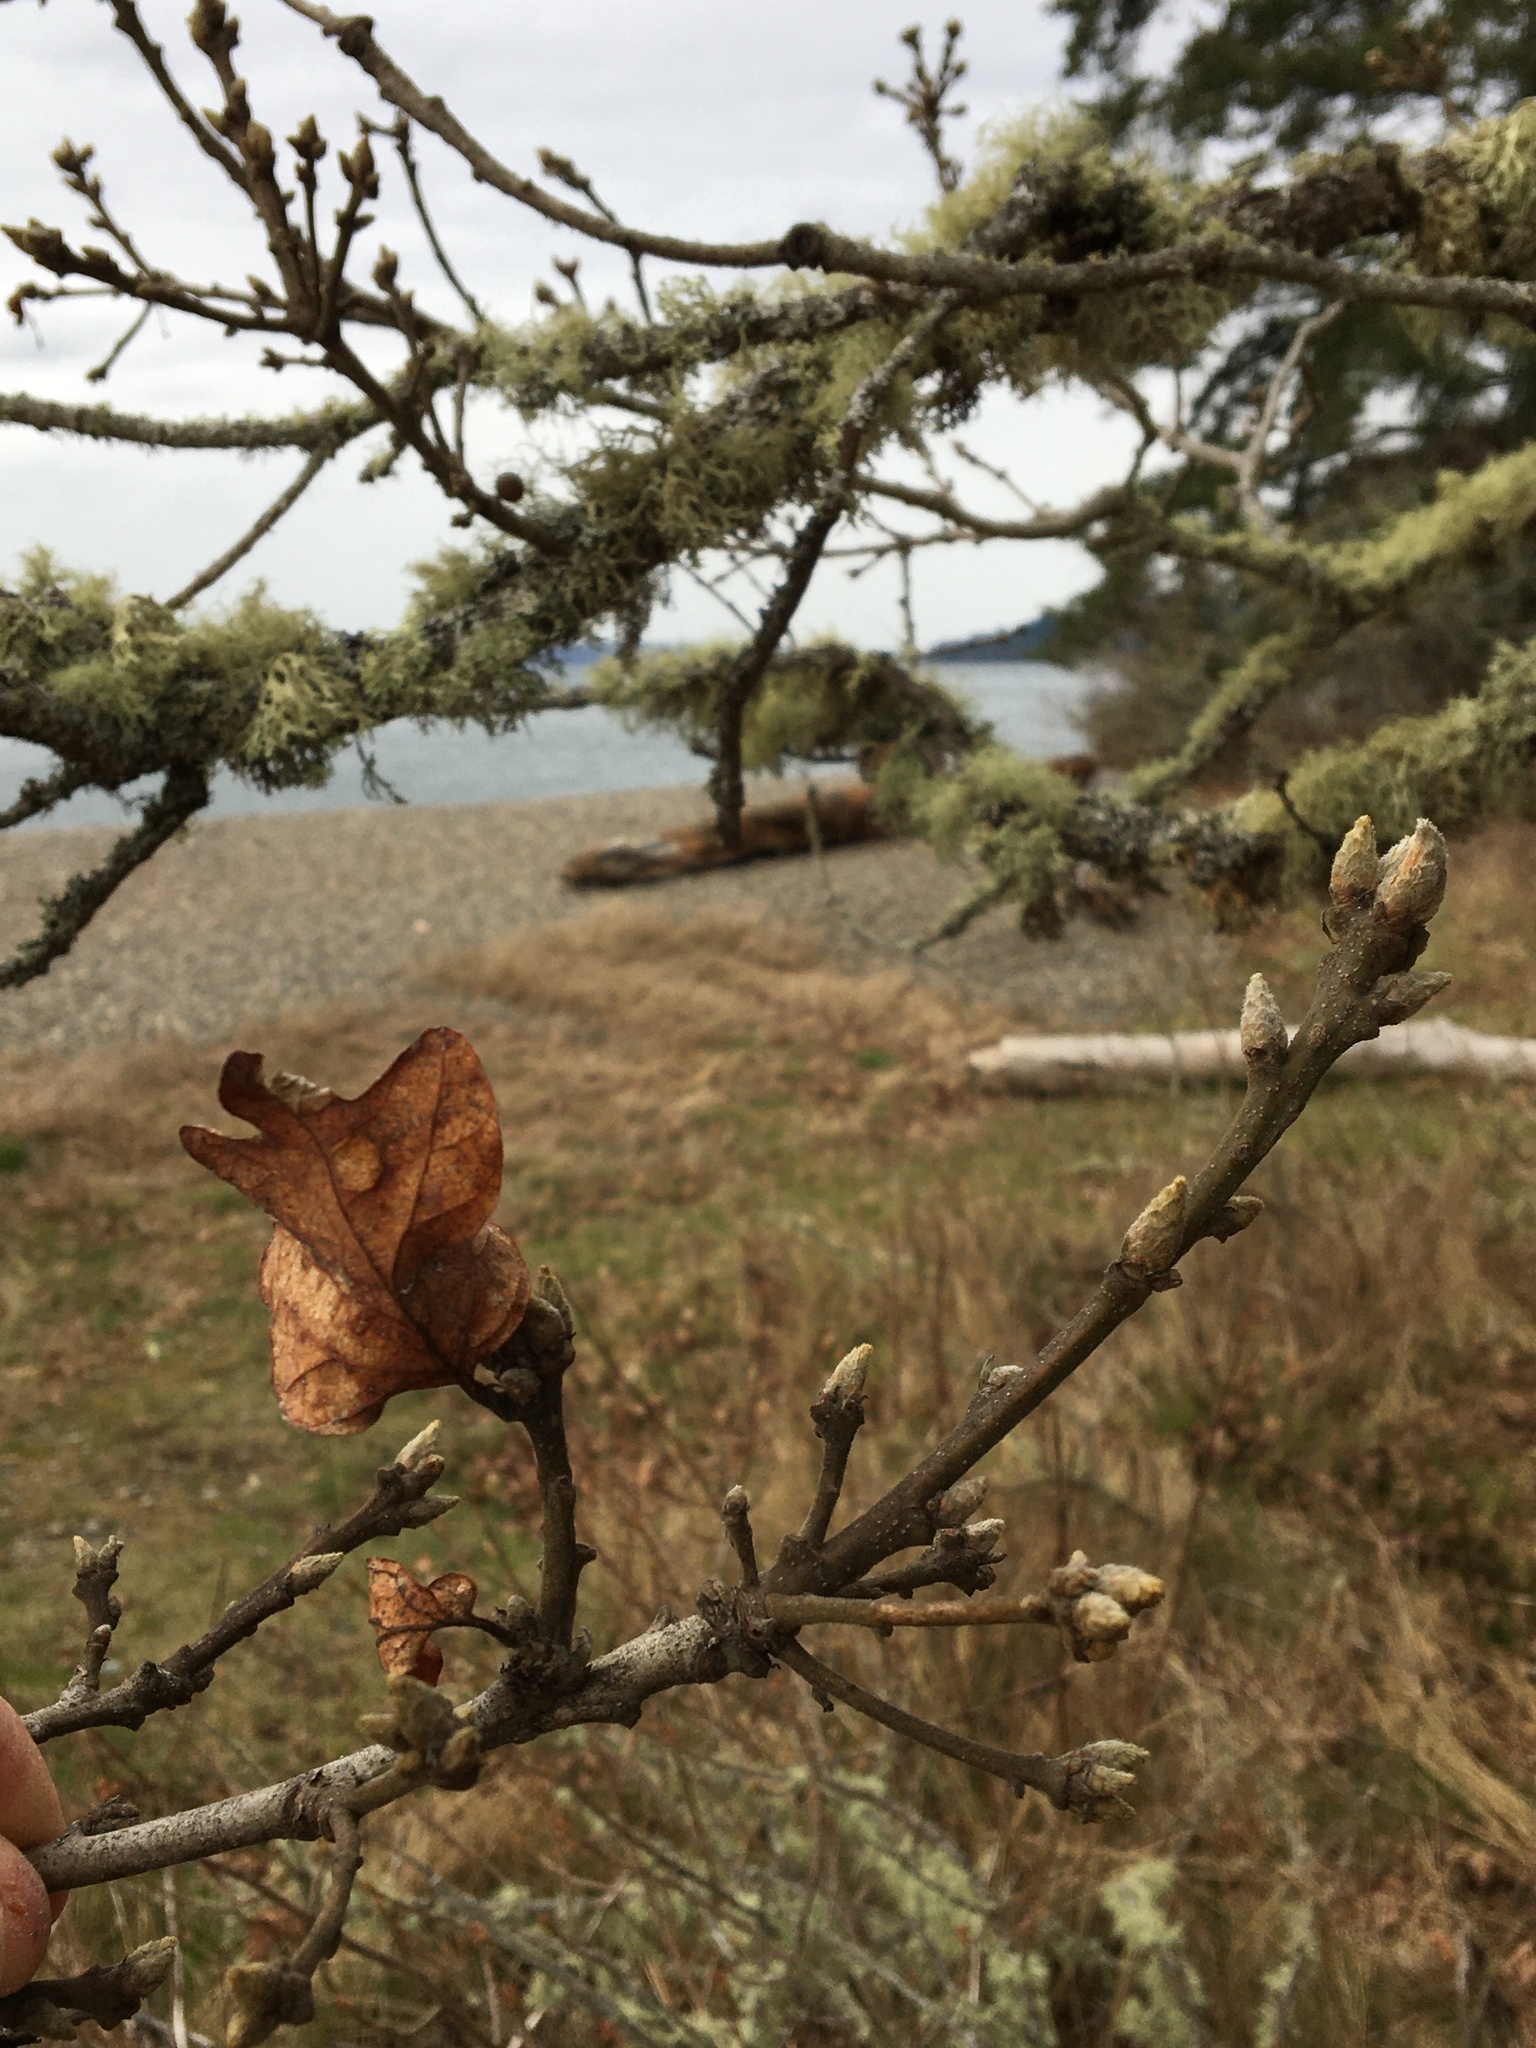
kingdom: Plantae
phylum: Tracheophyta
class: Magnoliopsida
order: Fagales
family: Fagaceae
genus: Quercus
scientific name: Quercus garryana
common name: Garry oak
